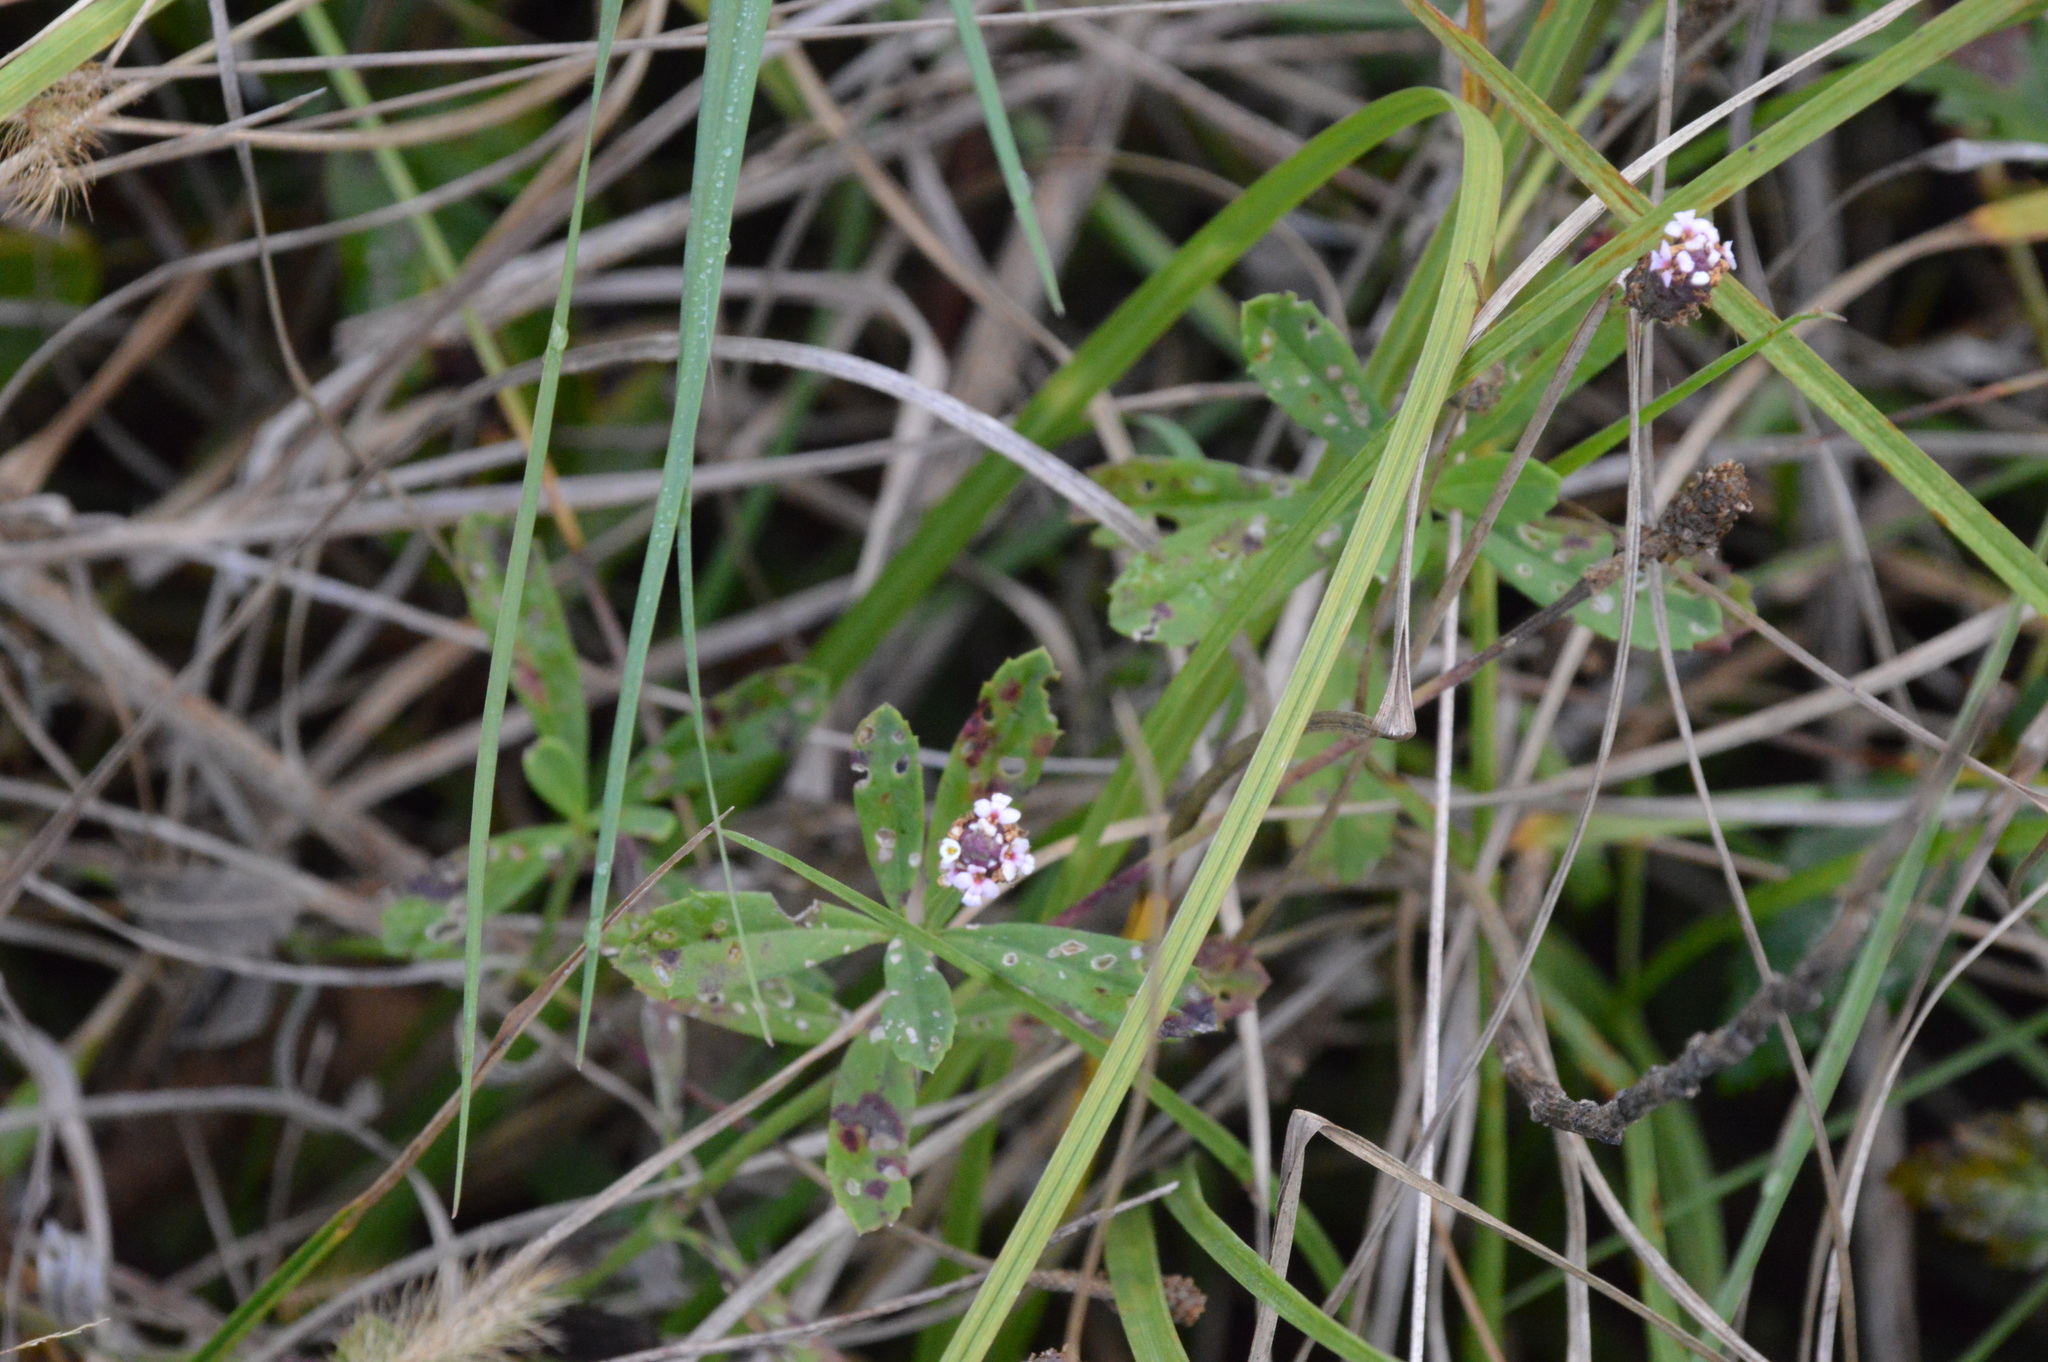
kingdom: Plantae
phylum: Tracheophyta
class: Magnoliopsida
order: Lamiales
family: Verbenaceae
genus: Phyla
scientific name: Phyla nodiflora
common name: Frogfruit
